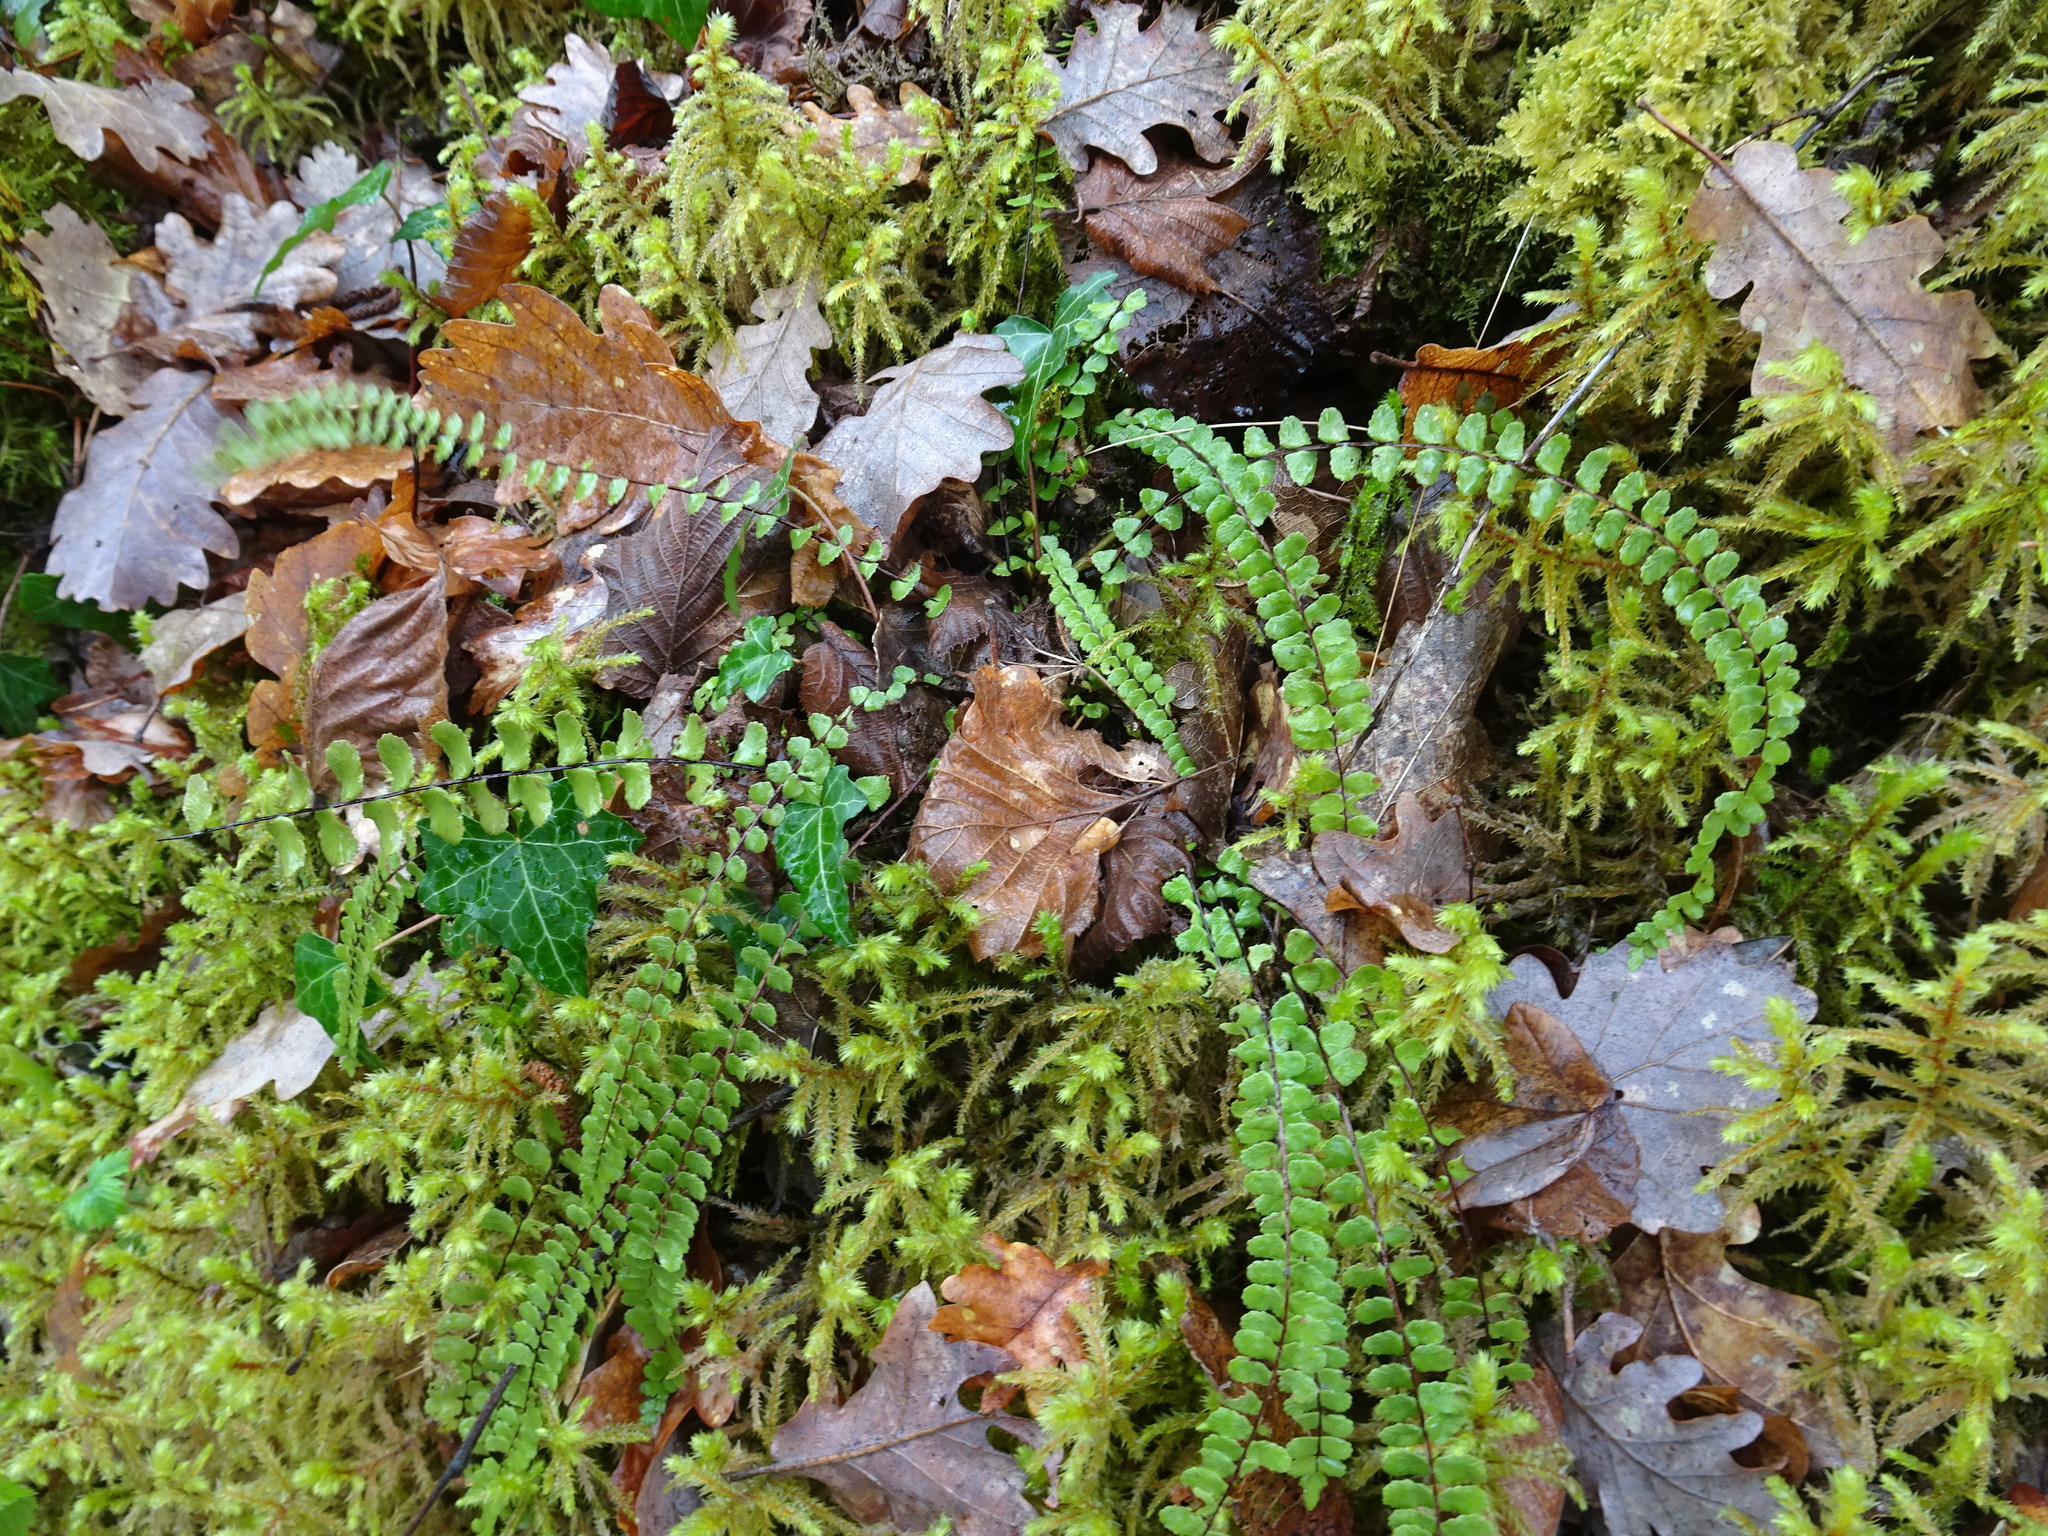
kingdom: Plantae
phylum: Tracheophyta
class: Polypodiopsida
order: Polypodiales
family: Aspleniaceae
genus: Asplenium
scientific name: Asplenium trichomanes
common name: Maidenhair spleenwort
